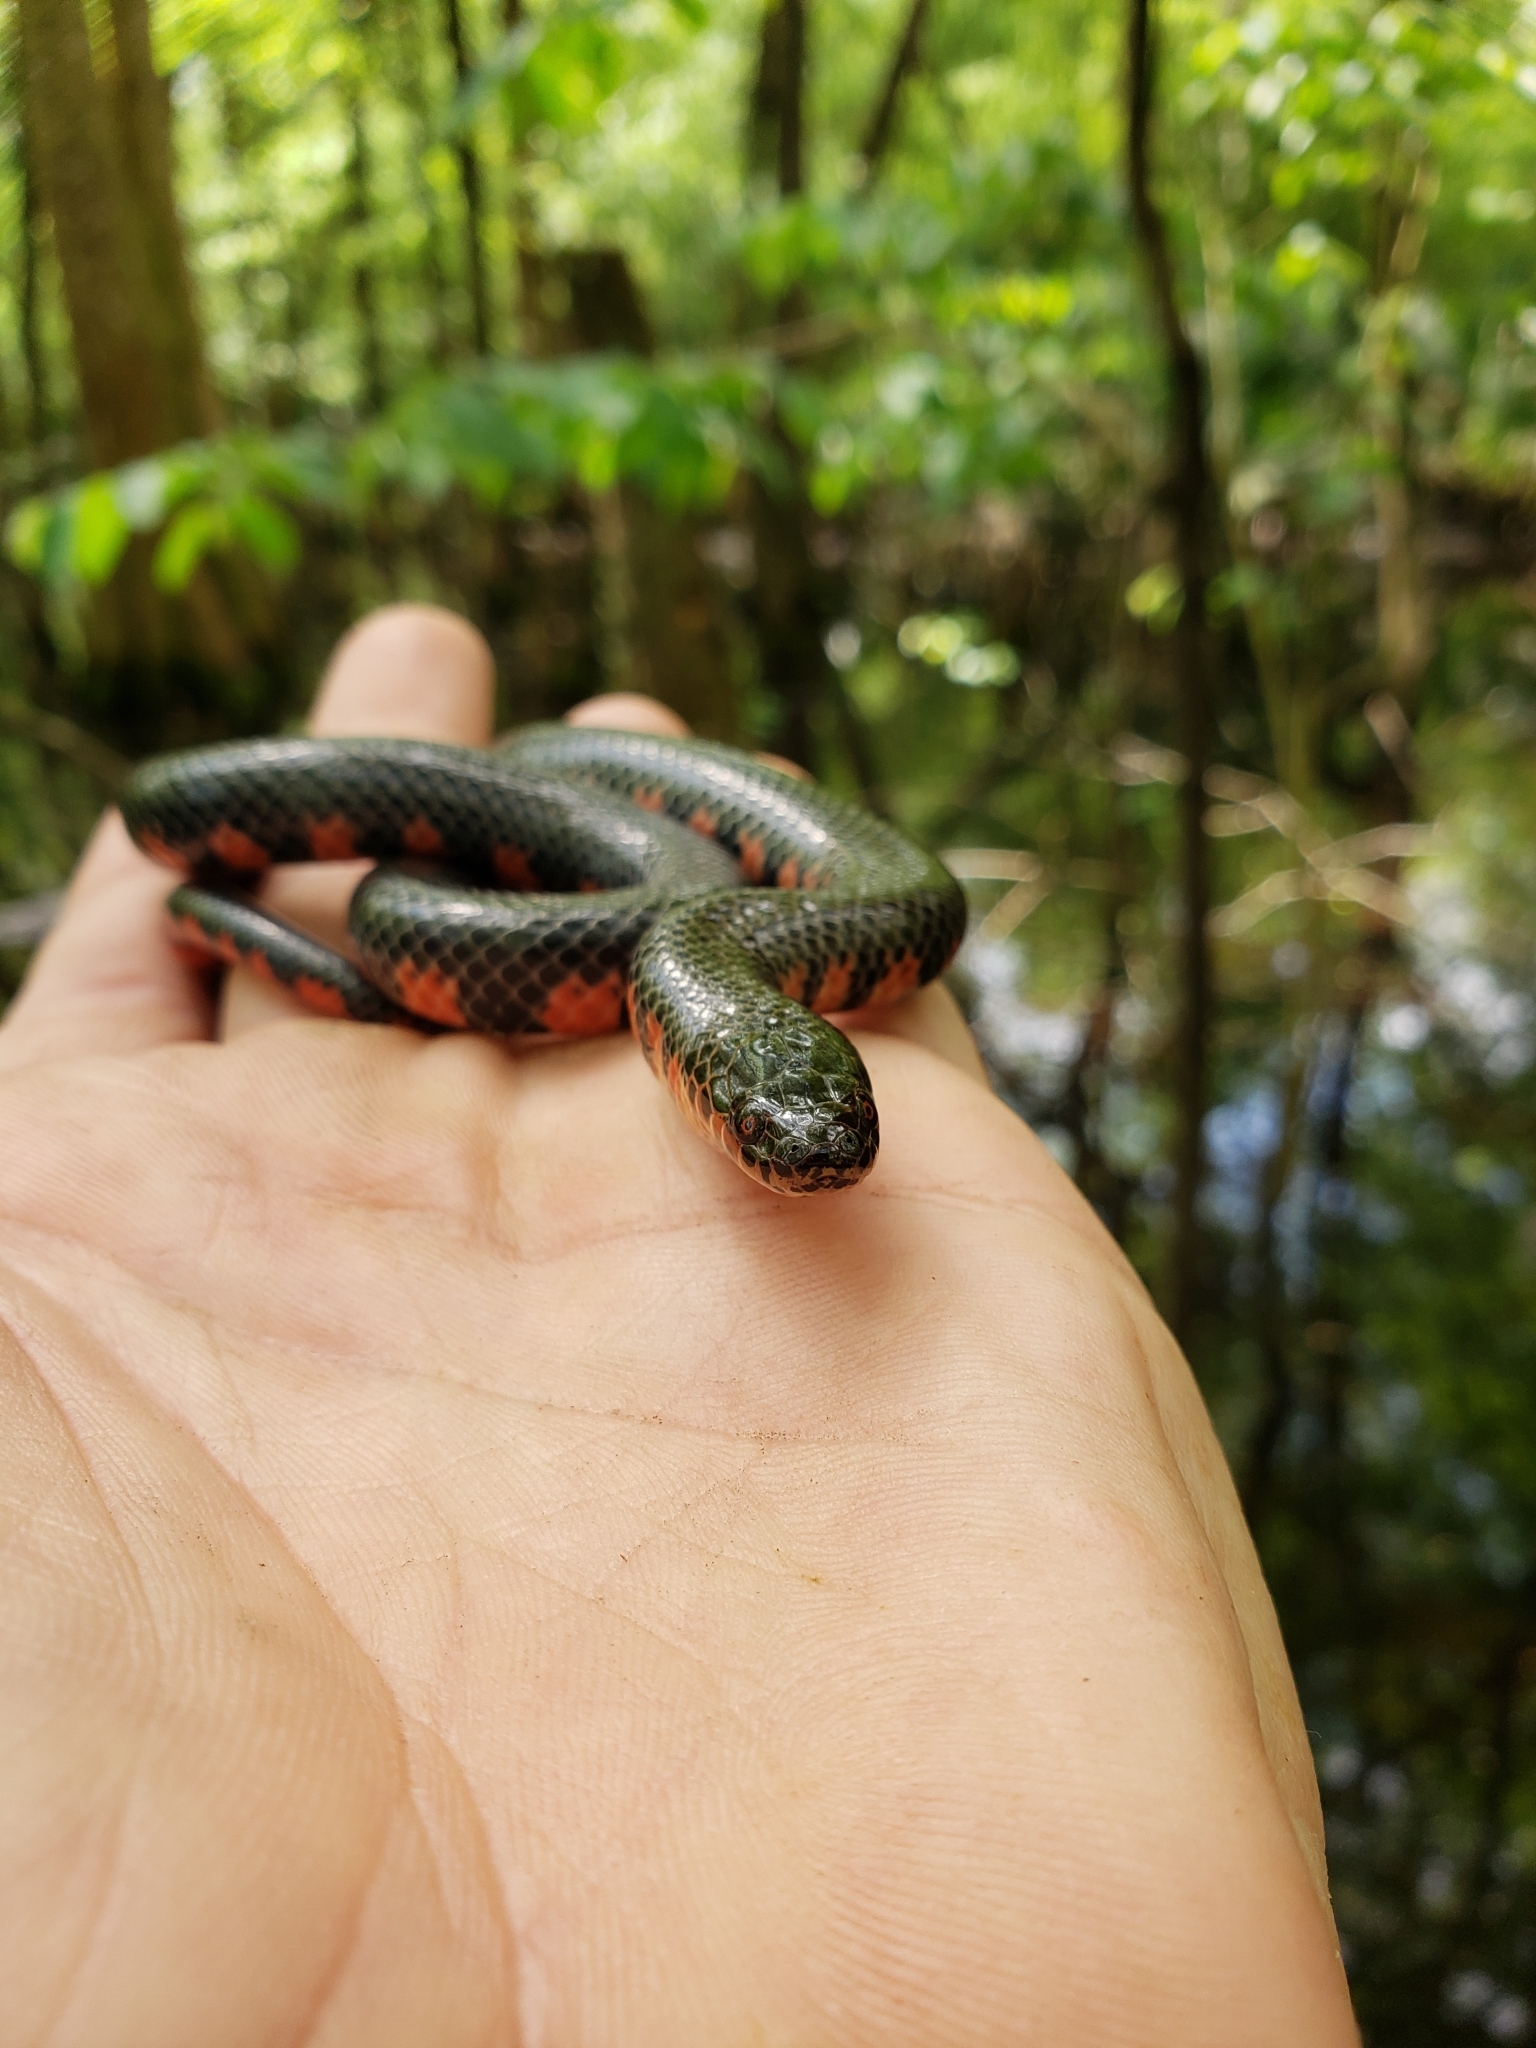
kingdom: Animalia
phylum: Chordata
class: Squamata
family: Colubridae
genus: Farancia
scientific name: Farancia abacura
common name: Mud snake
